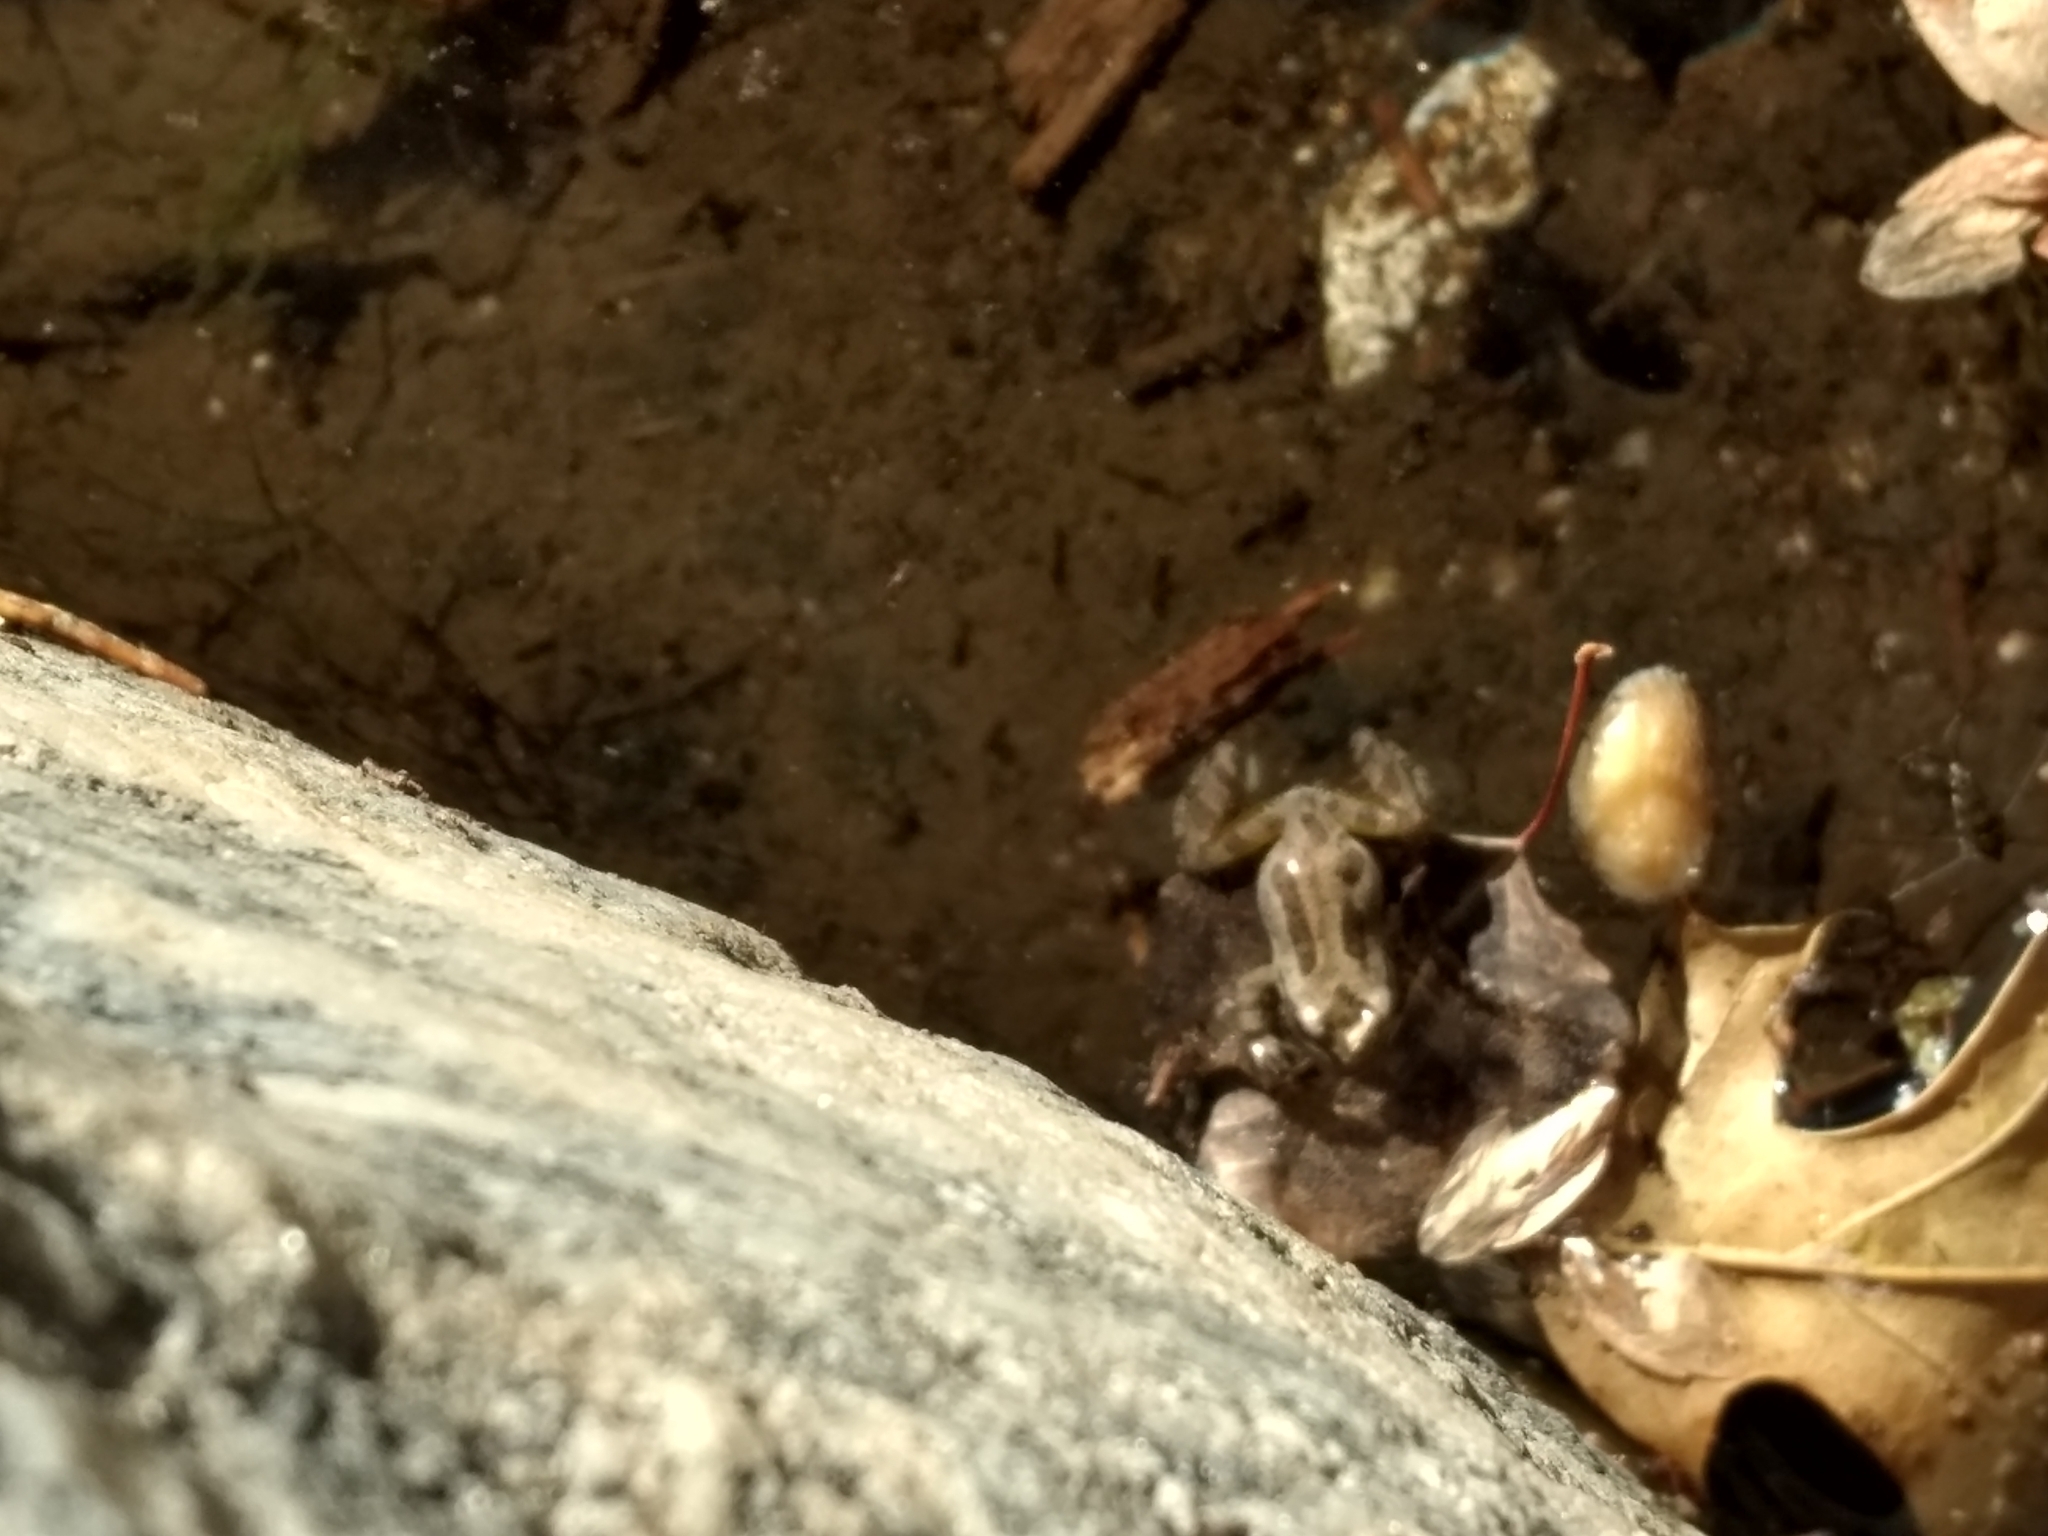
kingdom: Animalia
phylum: Chordata
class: Amphibia
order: Anura
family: Hylidae
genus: Pseudacris
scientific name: Pseudacris regilla
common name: Pacific chorus frog
